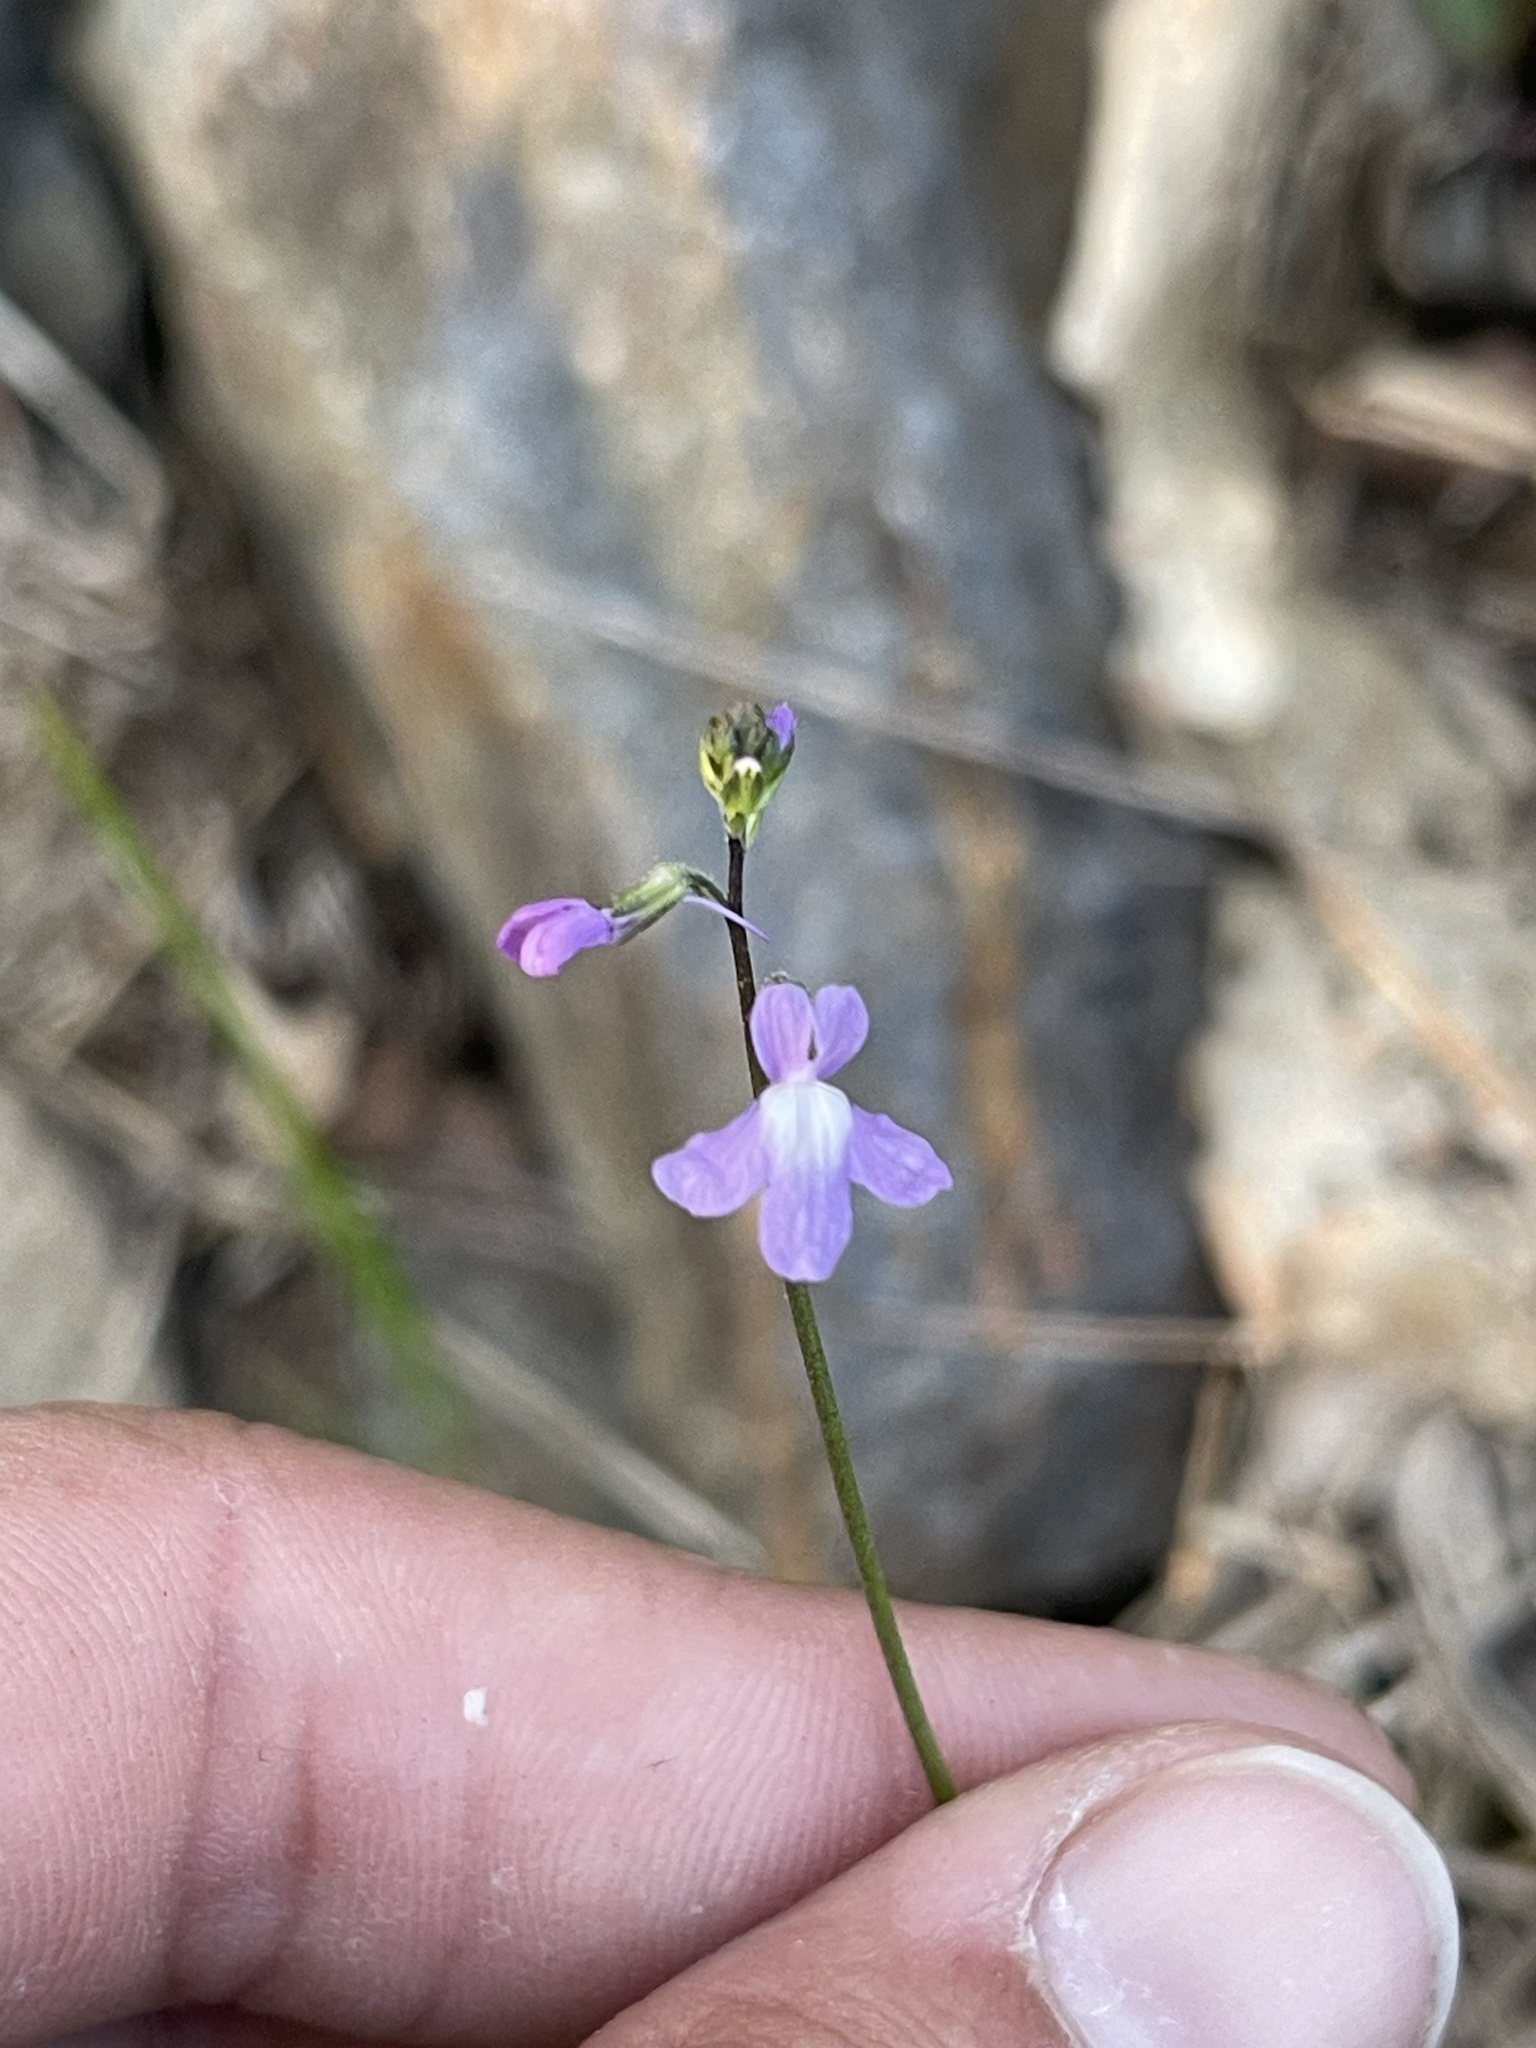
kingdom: Plantae
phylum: Tracheophyta
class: Magnoliopsida
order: Lamiales
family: Plantaginaceae
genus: Nuttallanthus
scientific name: Nuttallanthus canadensis
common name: Blue toadflax
